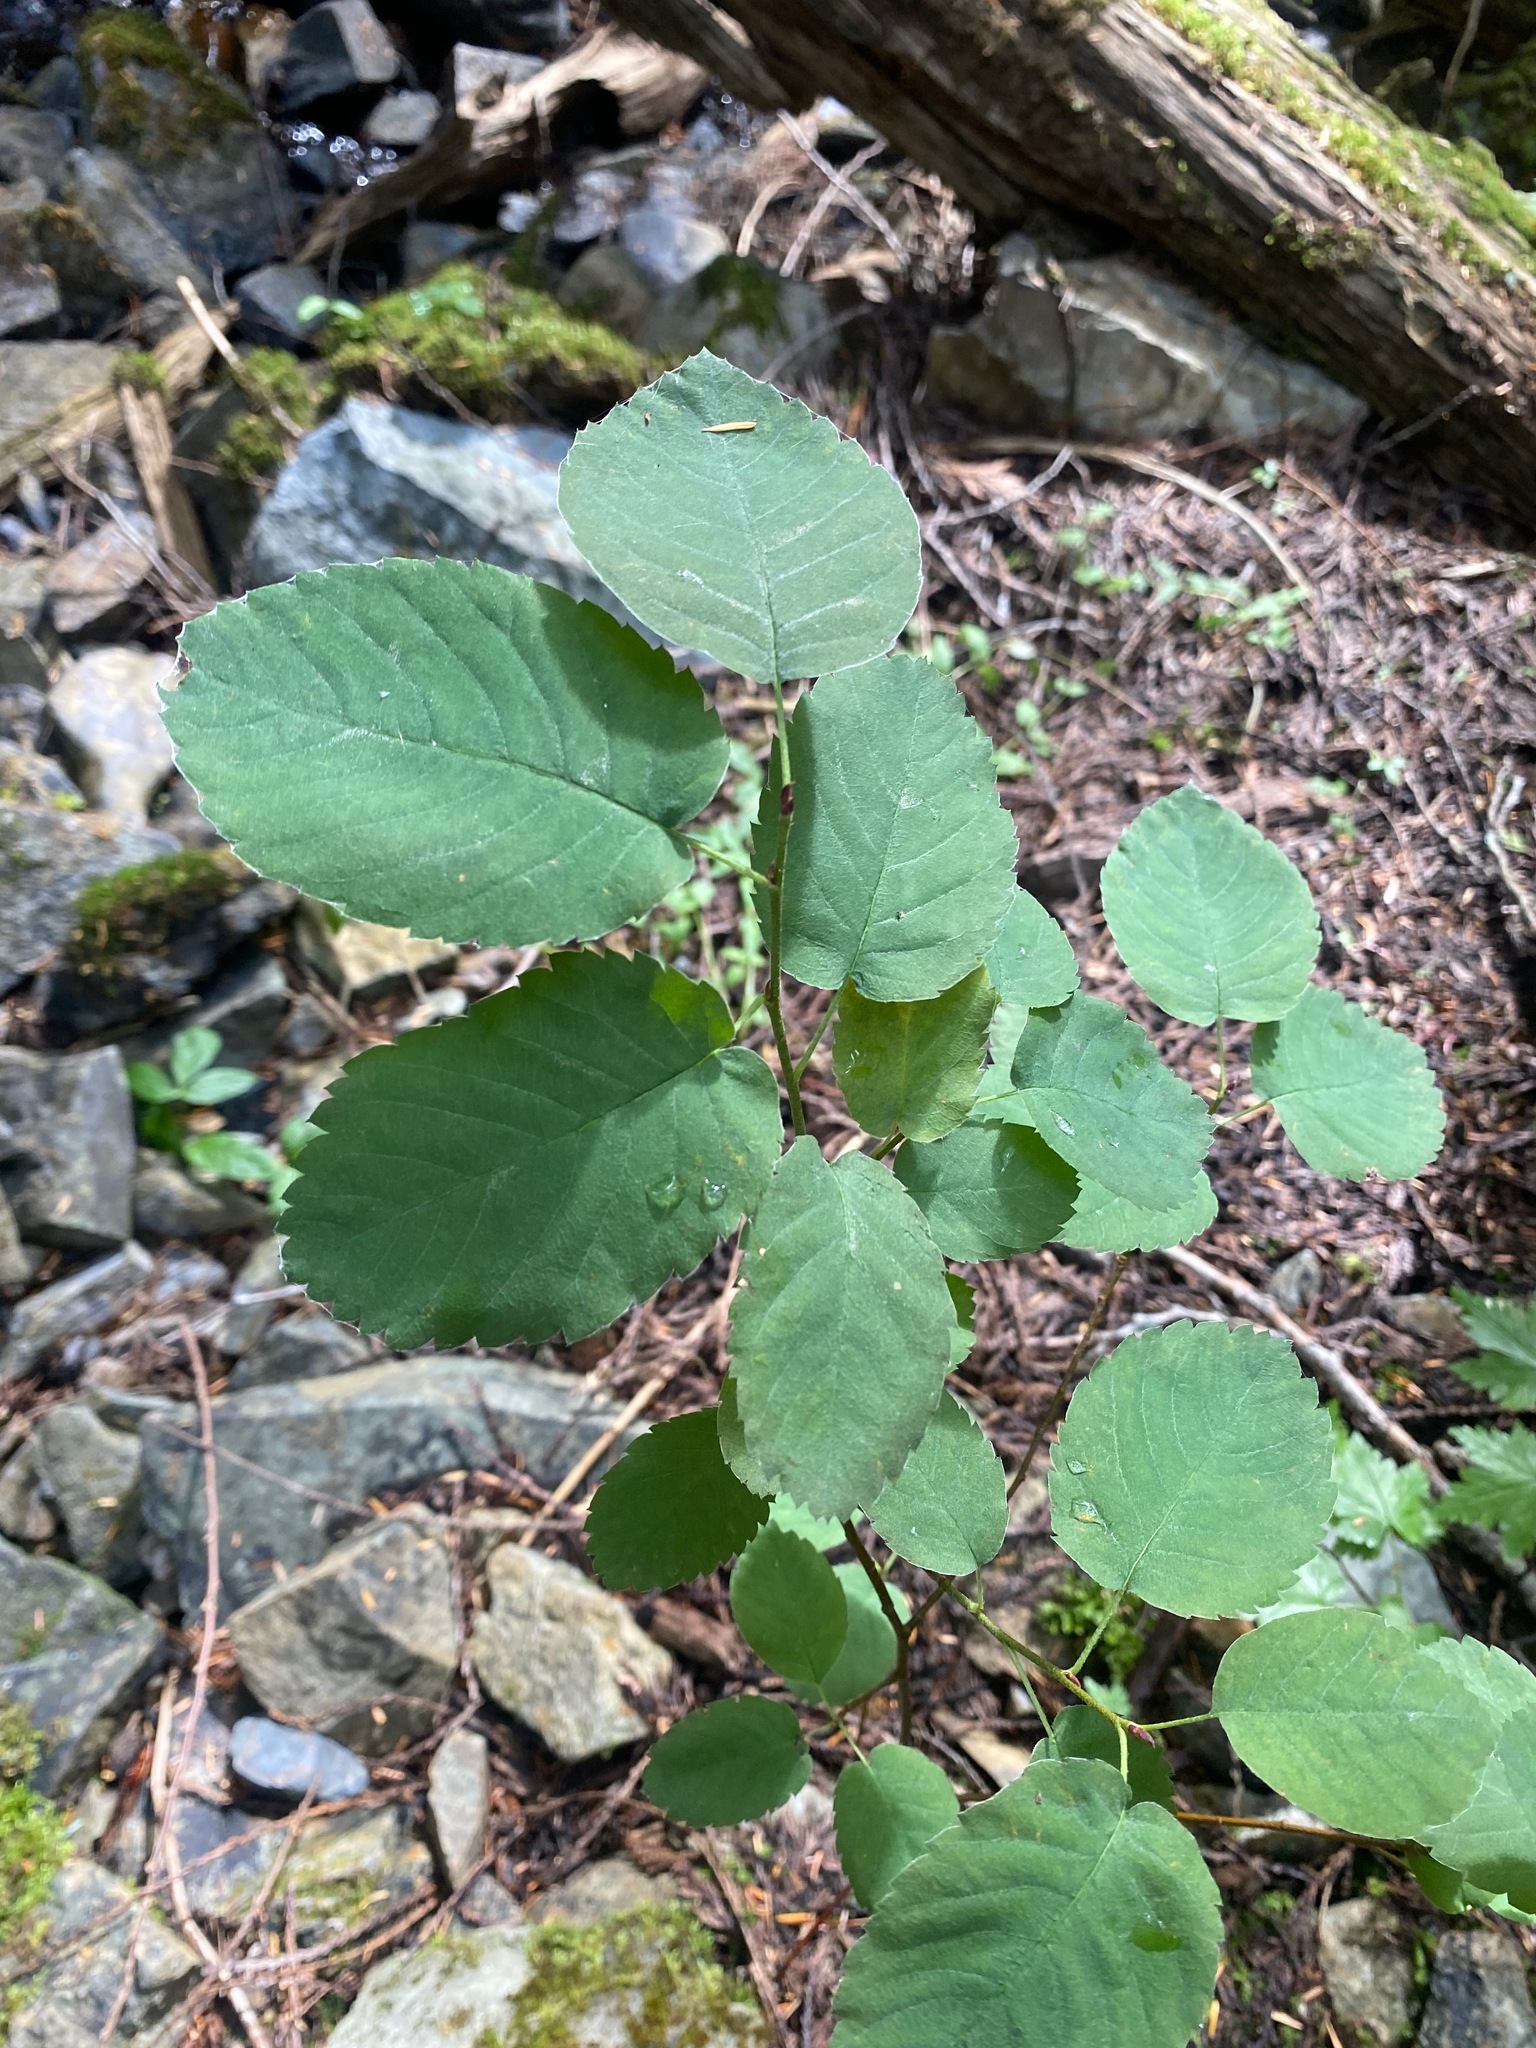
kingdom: Plantae
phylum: Tracheophyta
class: Magnoliopsida
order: Rosales
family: Rosaceae
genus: Amelanchier
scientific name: Amelanchier alnifolia
